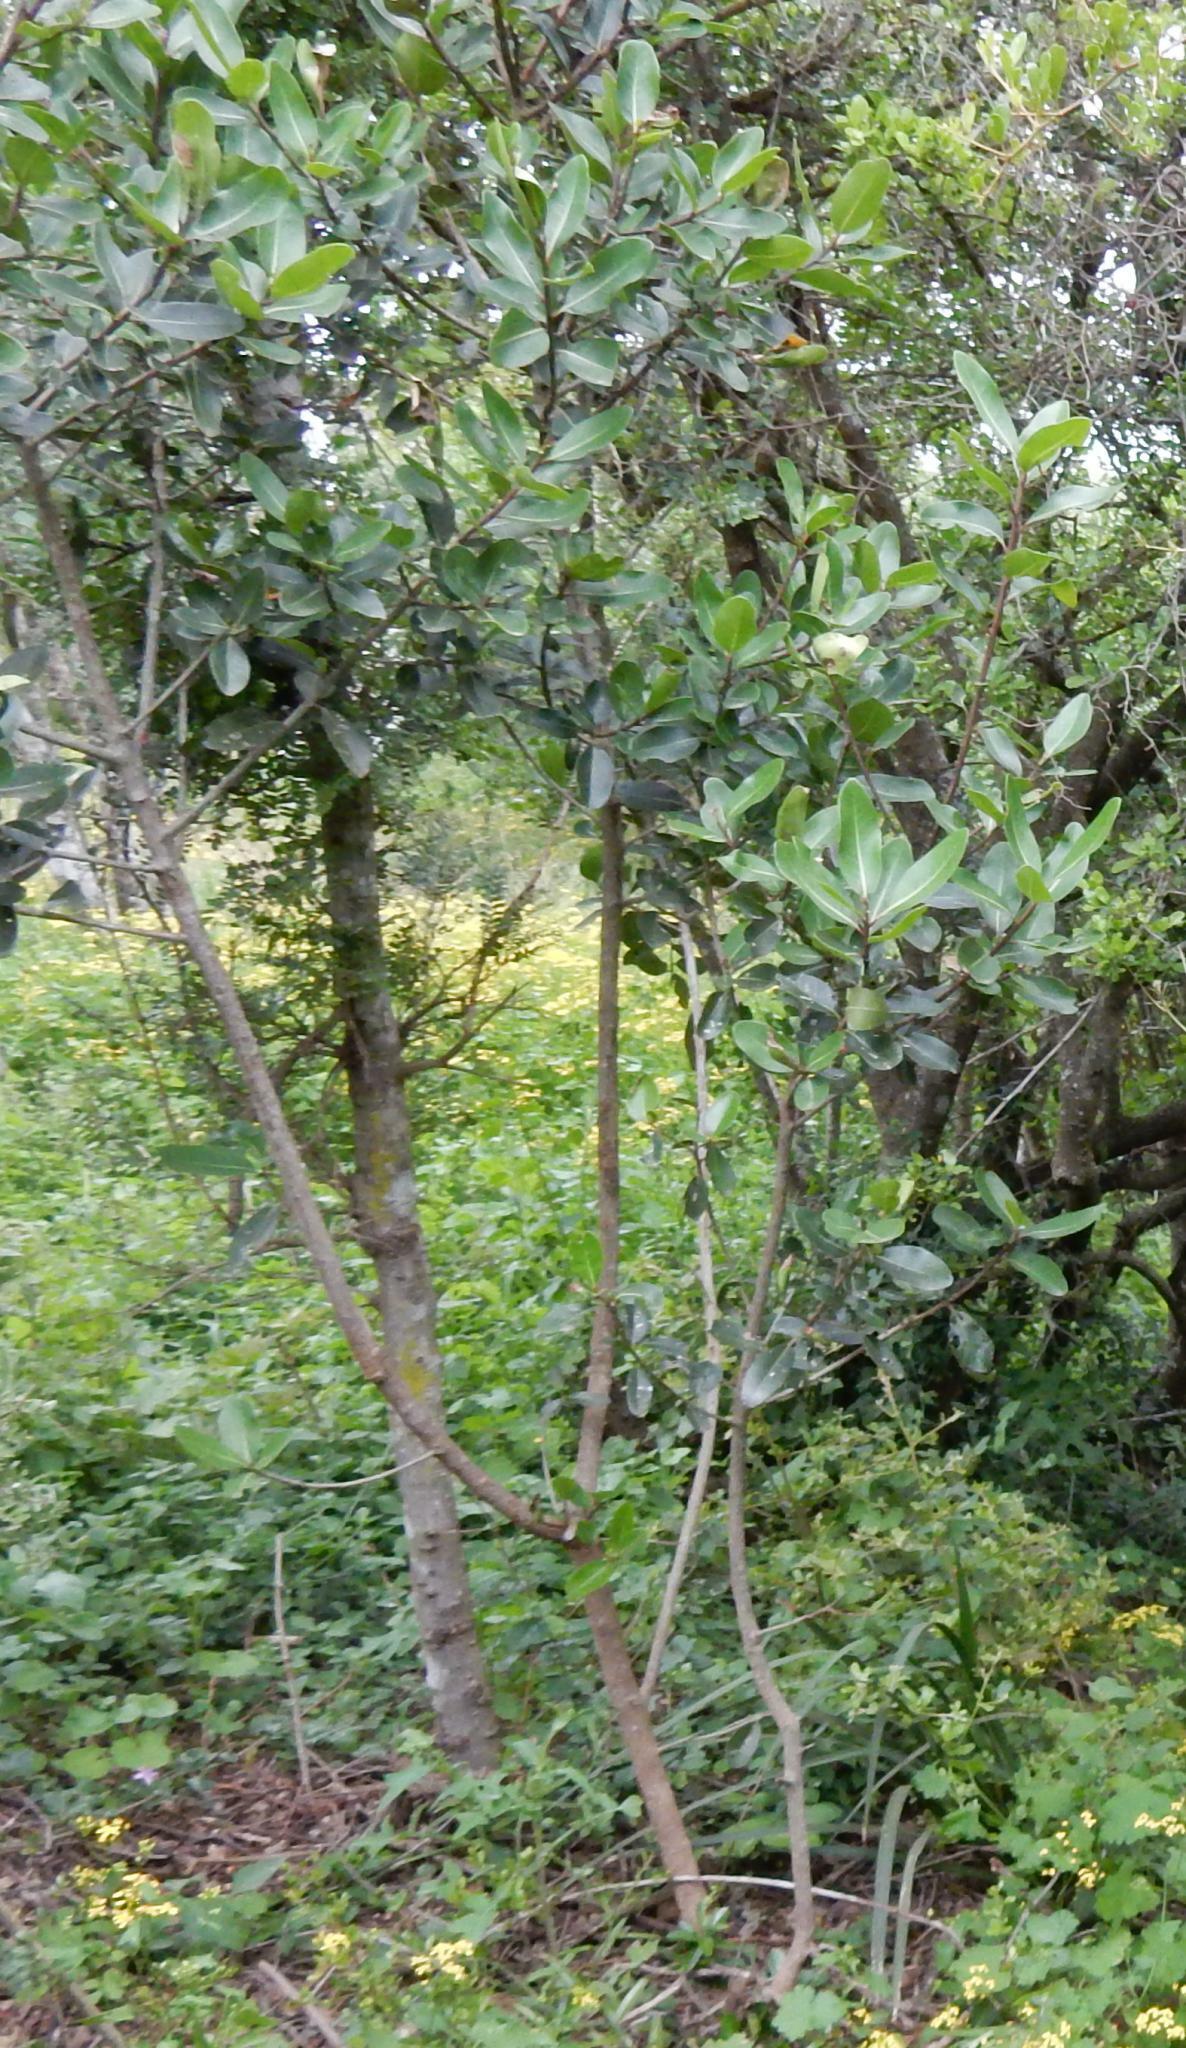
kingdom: Plantae
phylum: Tracheophyta
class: Magnoliopsida
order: Ericales
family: Sapotaceae
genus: Sideroxylon
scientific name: Sideroxylon inerme
